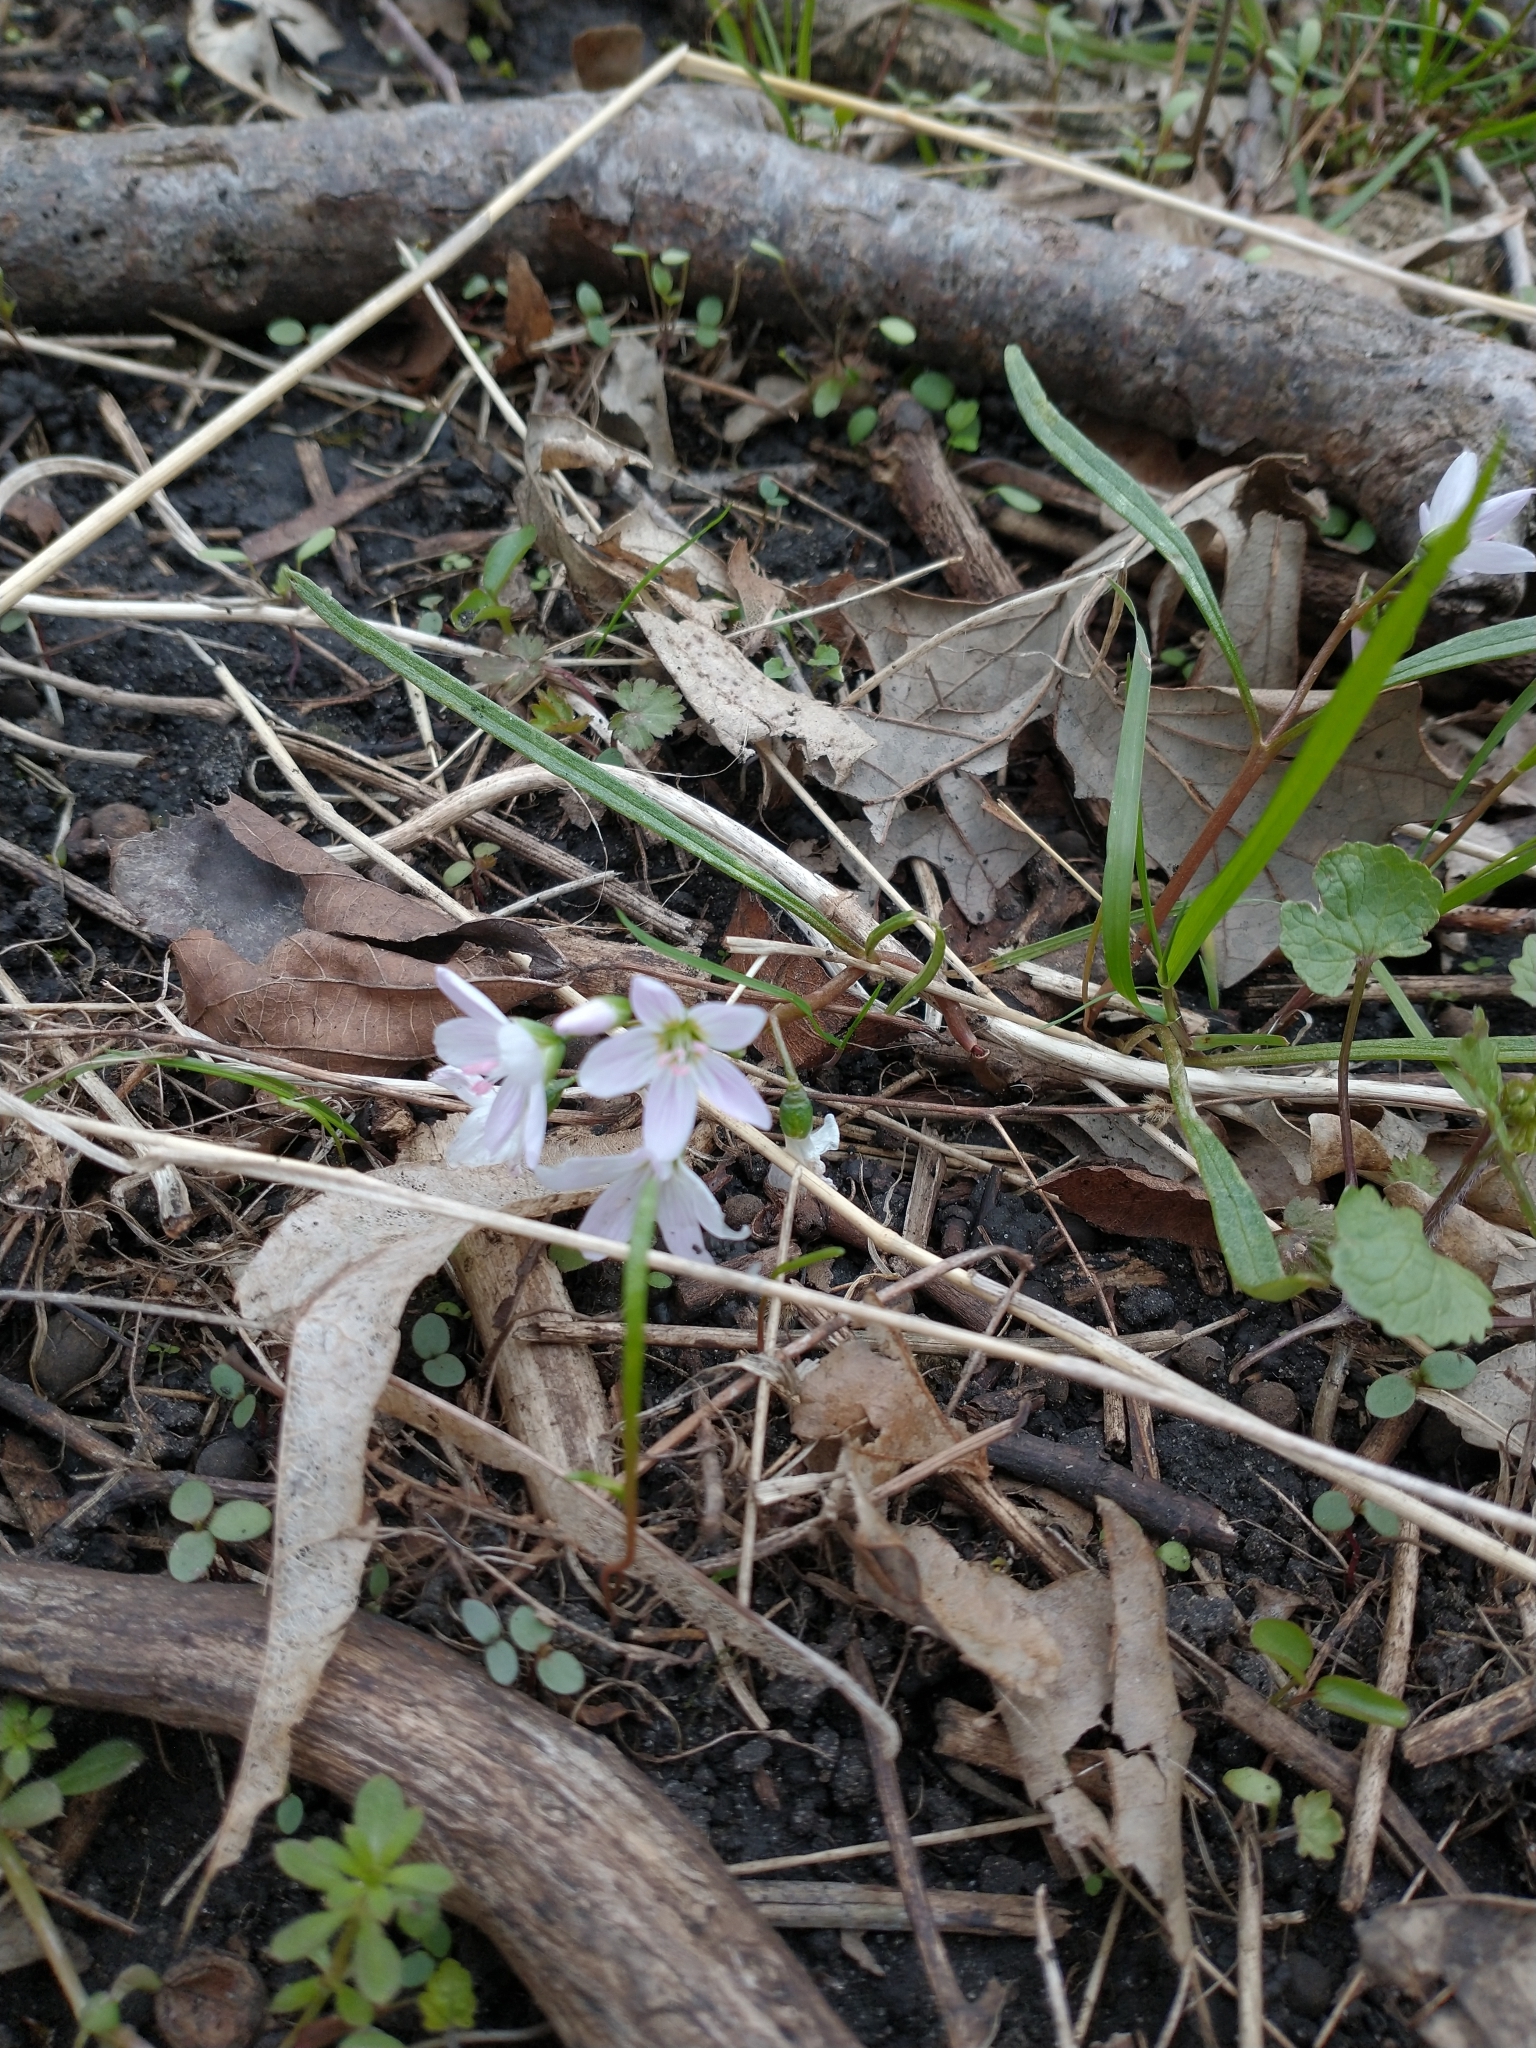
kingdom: Plantae
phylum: Tracheophyta
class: Magnoliopsida
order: Caryophyllales
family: Montiaceae
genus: Claytonia
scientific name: Claytonia virginica
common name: Virginia springbeauty
